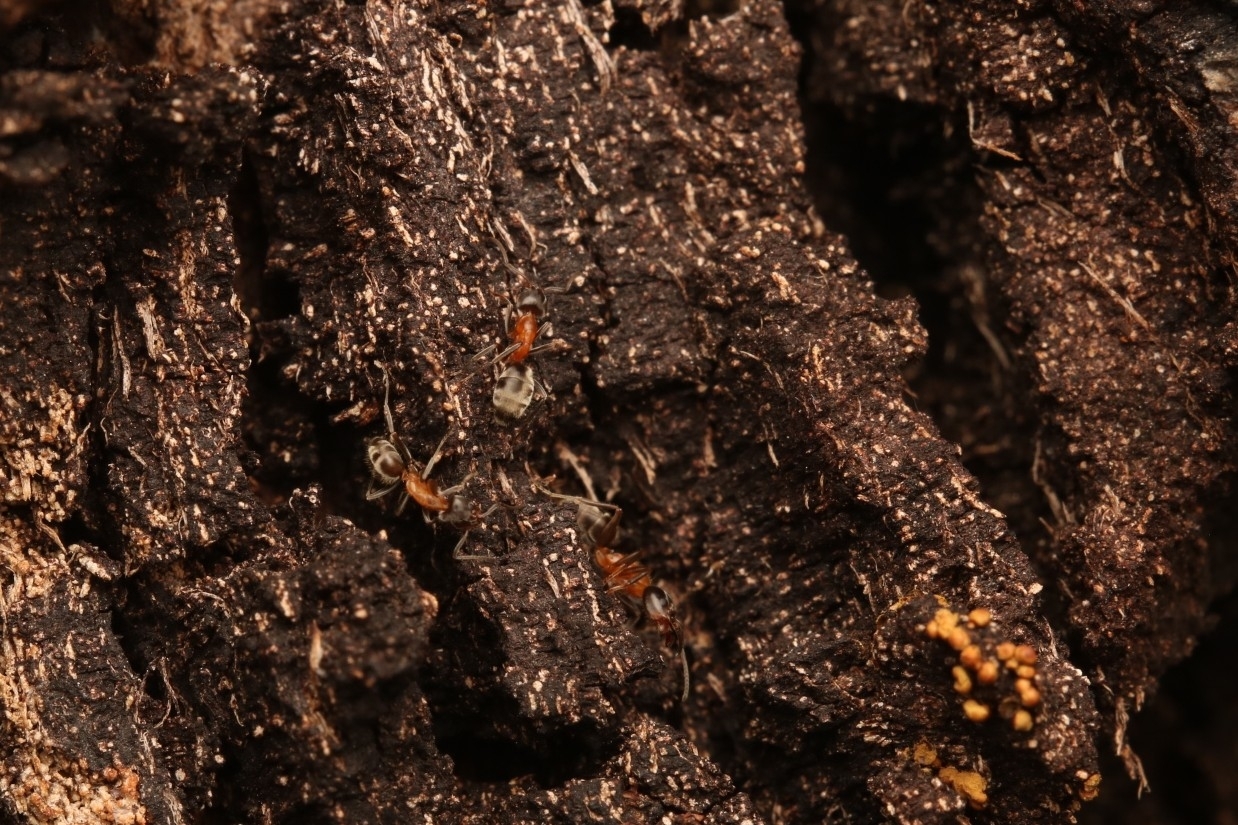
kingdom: Animalia
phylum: Arthropoda
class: Insecta
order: Hymenoptera
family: Formicidae
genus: Liometopum
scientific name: Liometopum occidentale
